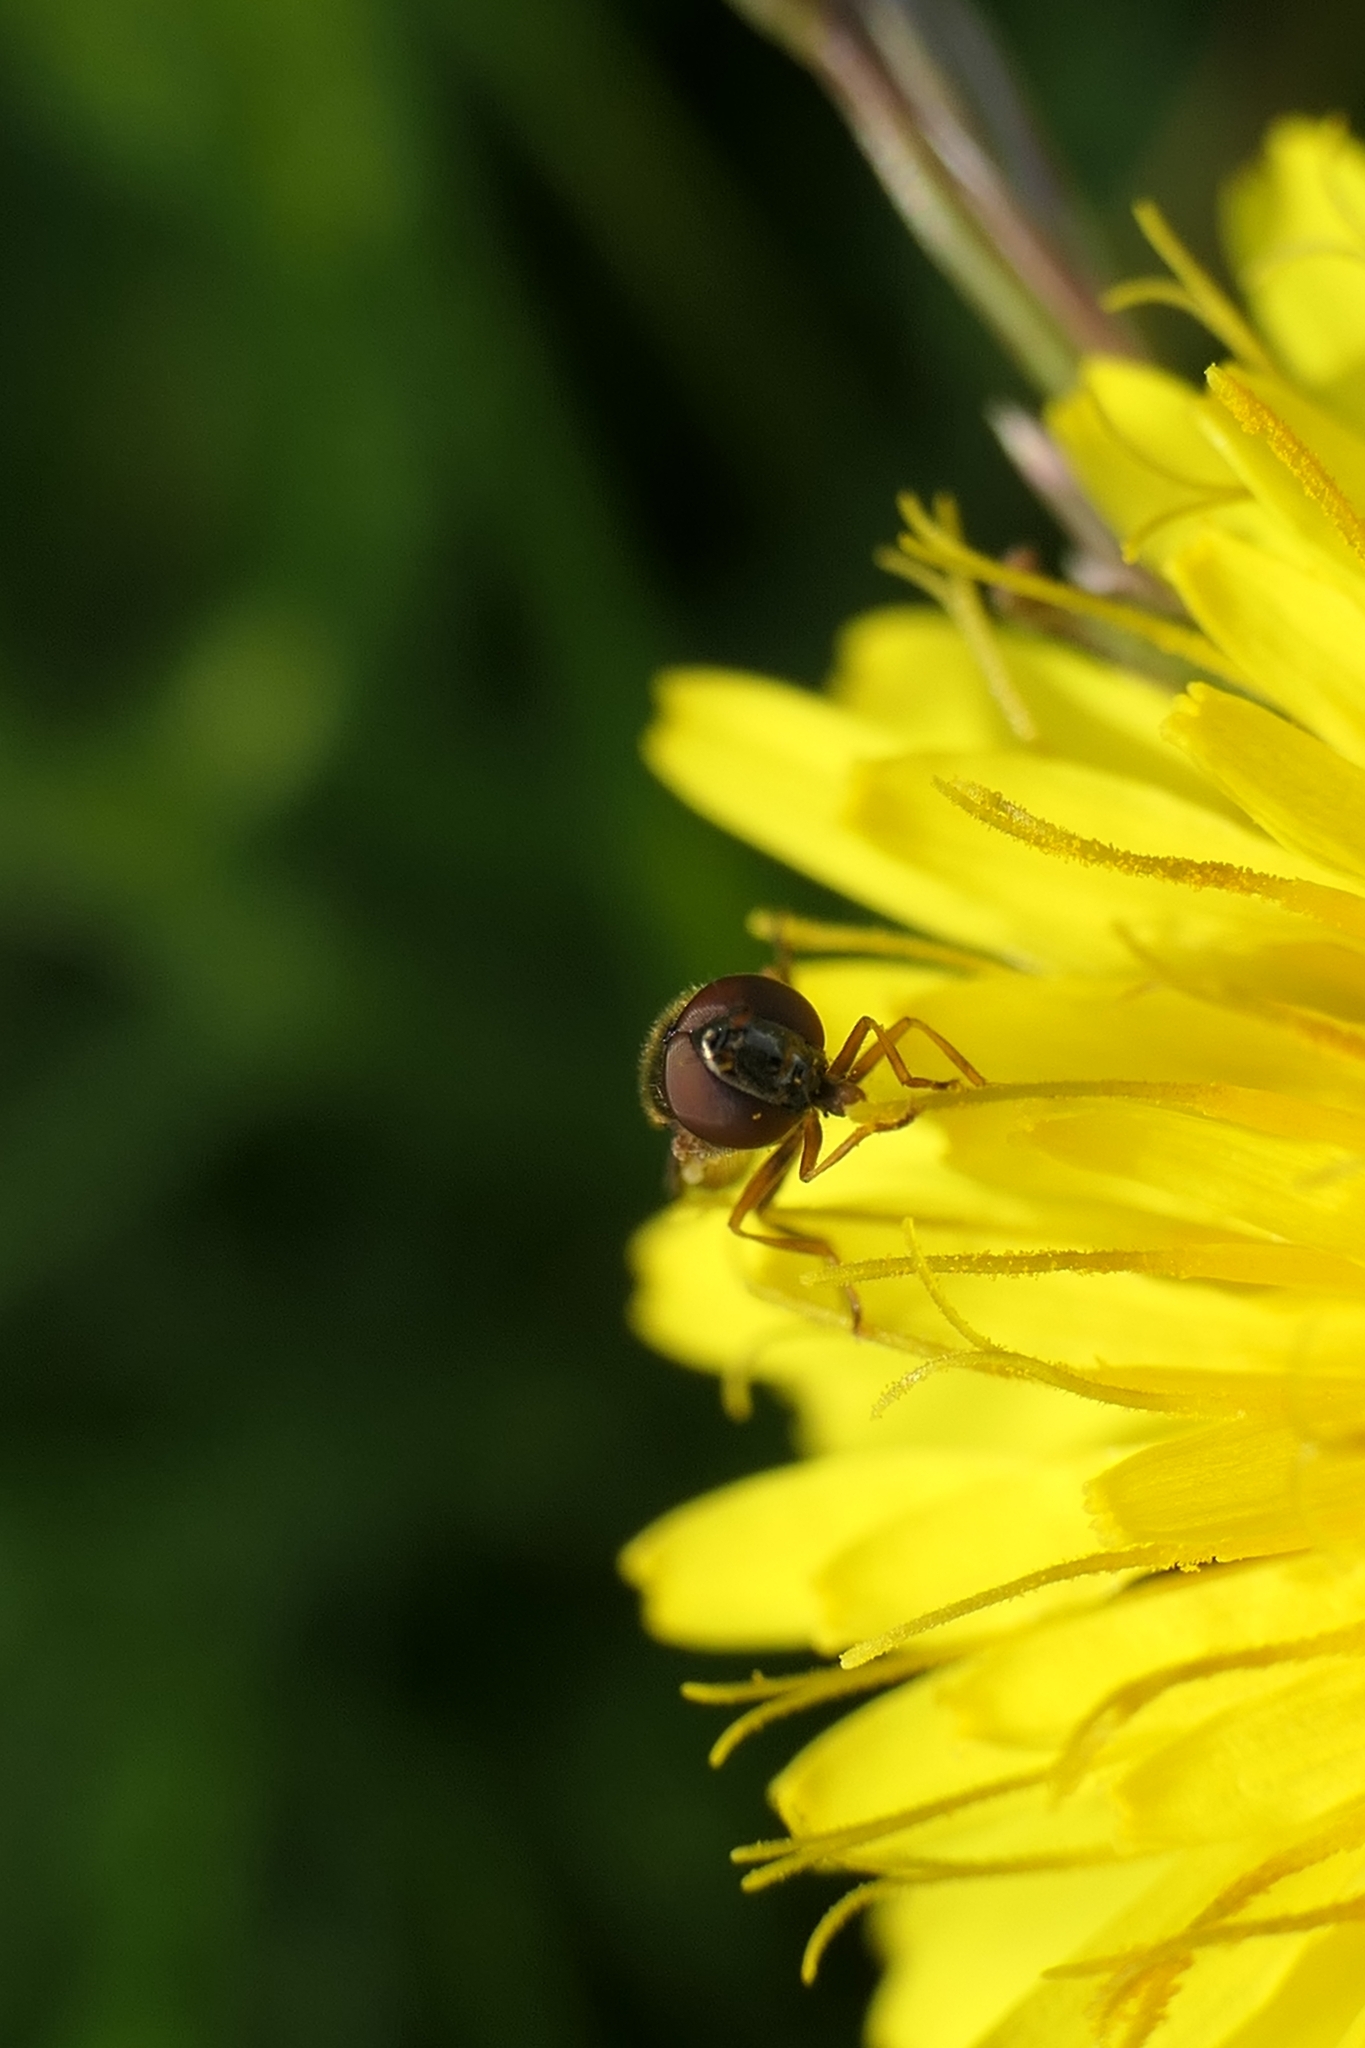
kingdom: Animalia
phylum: Arthropoda
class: Insecta
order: Diptera
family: Syrphidae
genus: Melanostoma
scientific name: Melanostoma fasciatum
